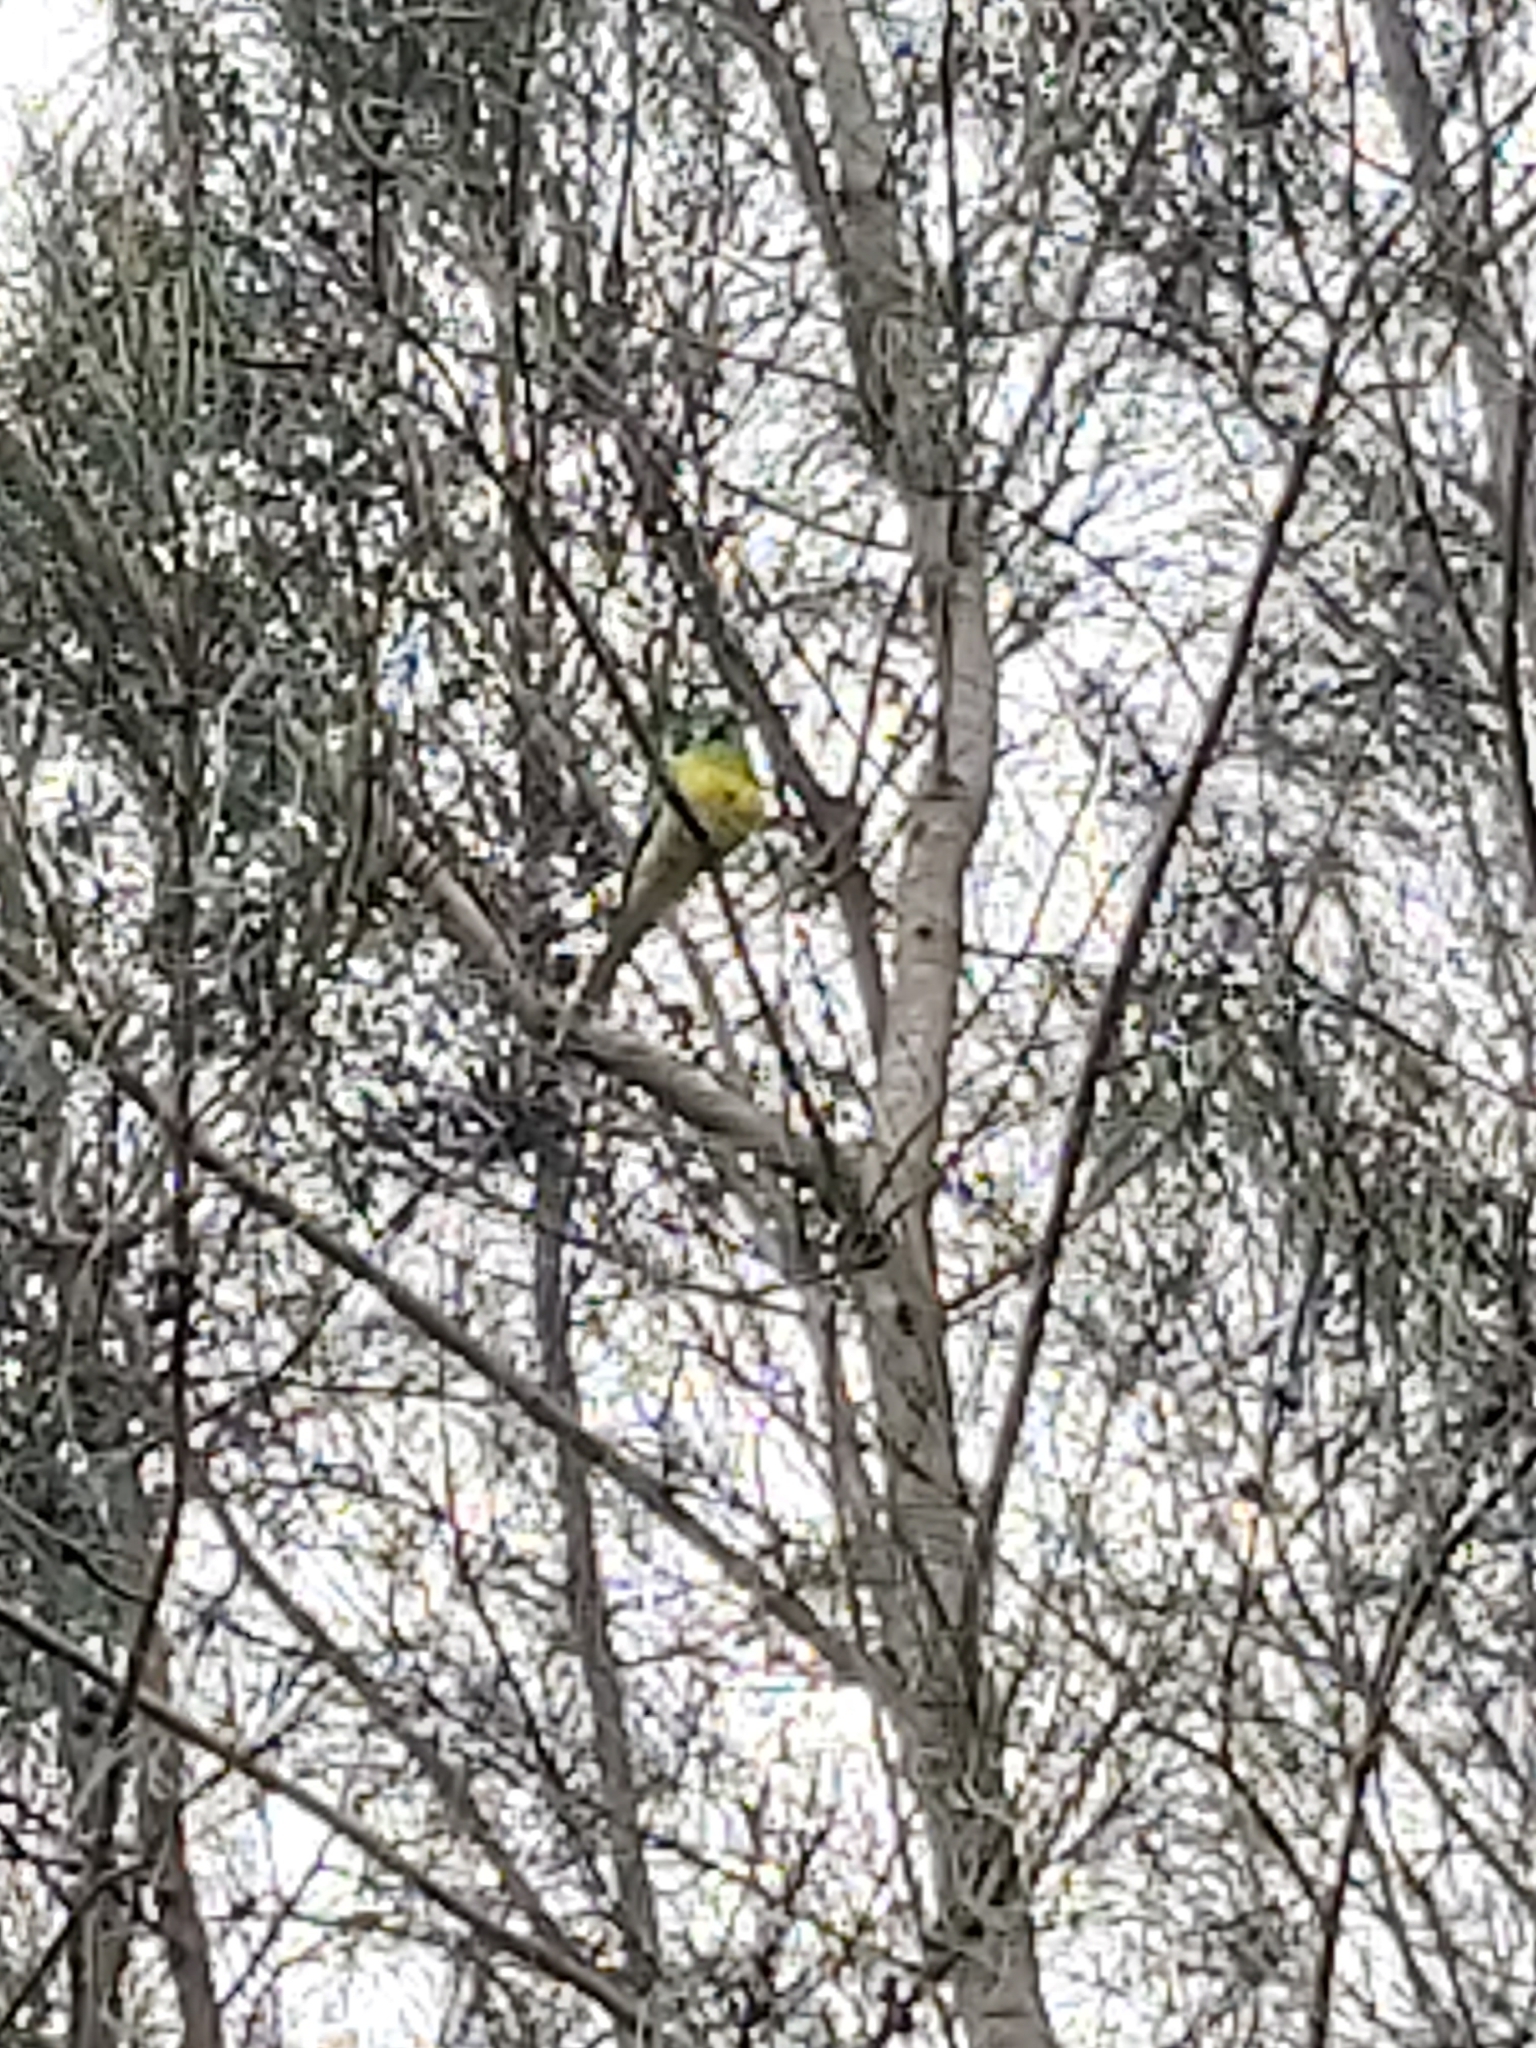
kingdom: Animalia
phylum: Chordata
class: Aves
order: Psittaciformes
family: Psittacidae
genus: Psephotus
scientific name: Psephotus haematonotus
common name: Red-rumped parrot
